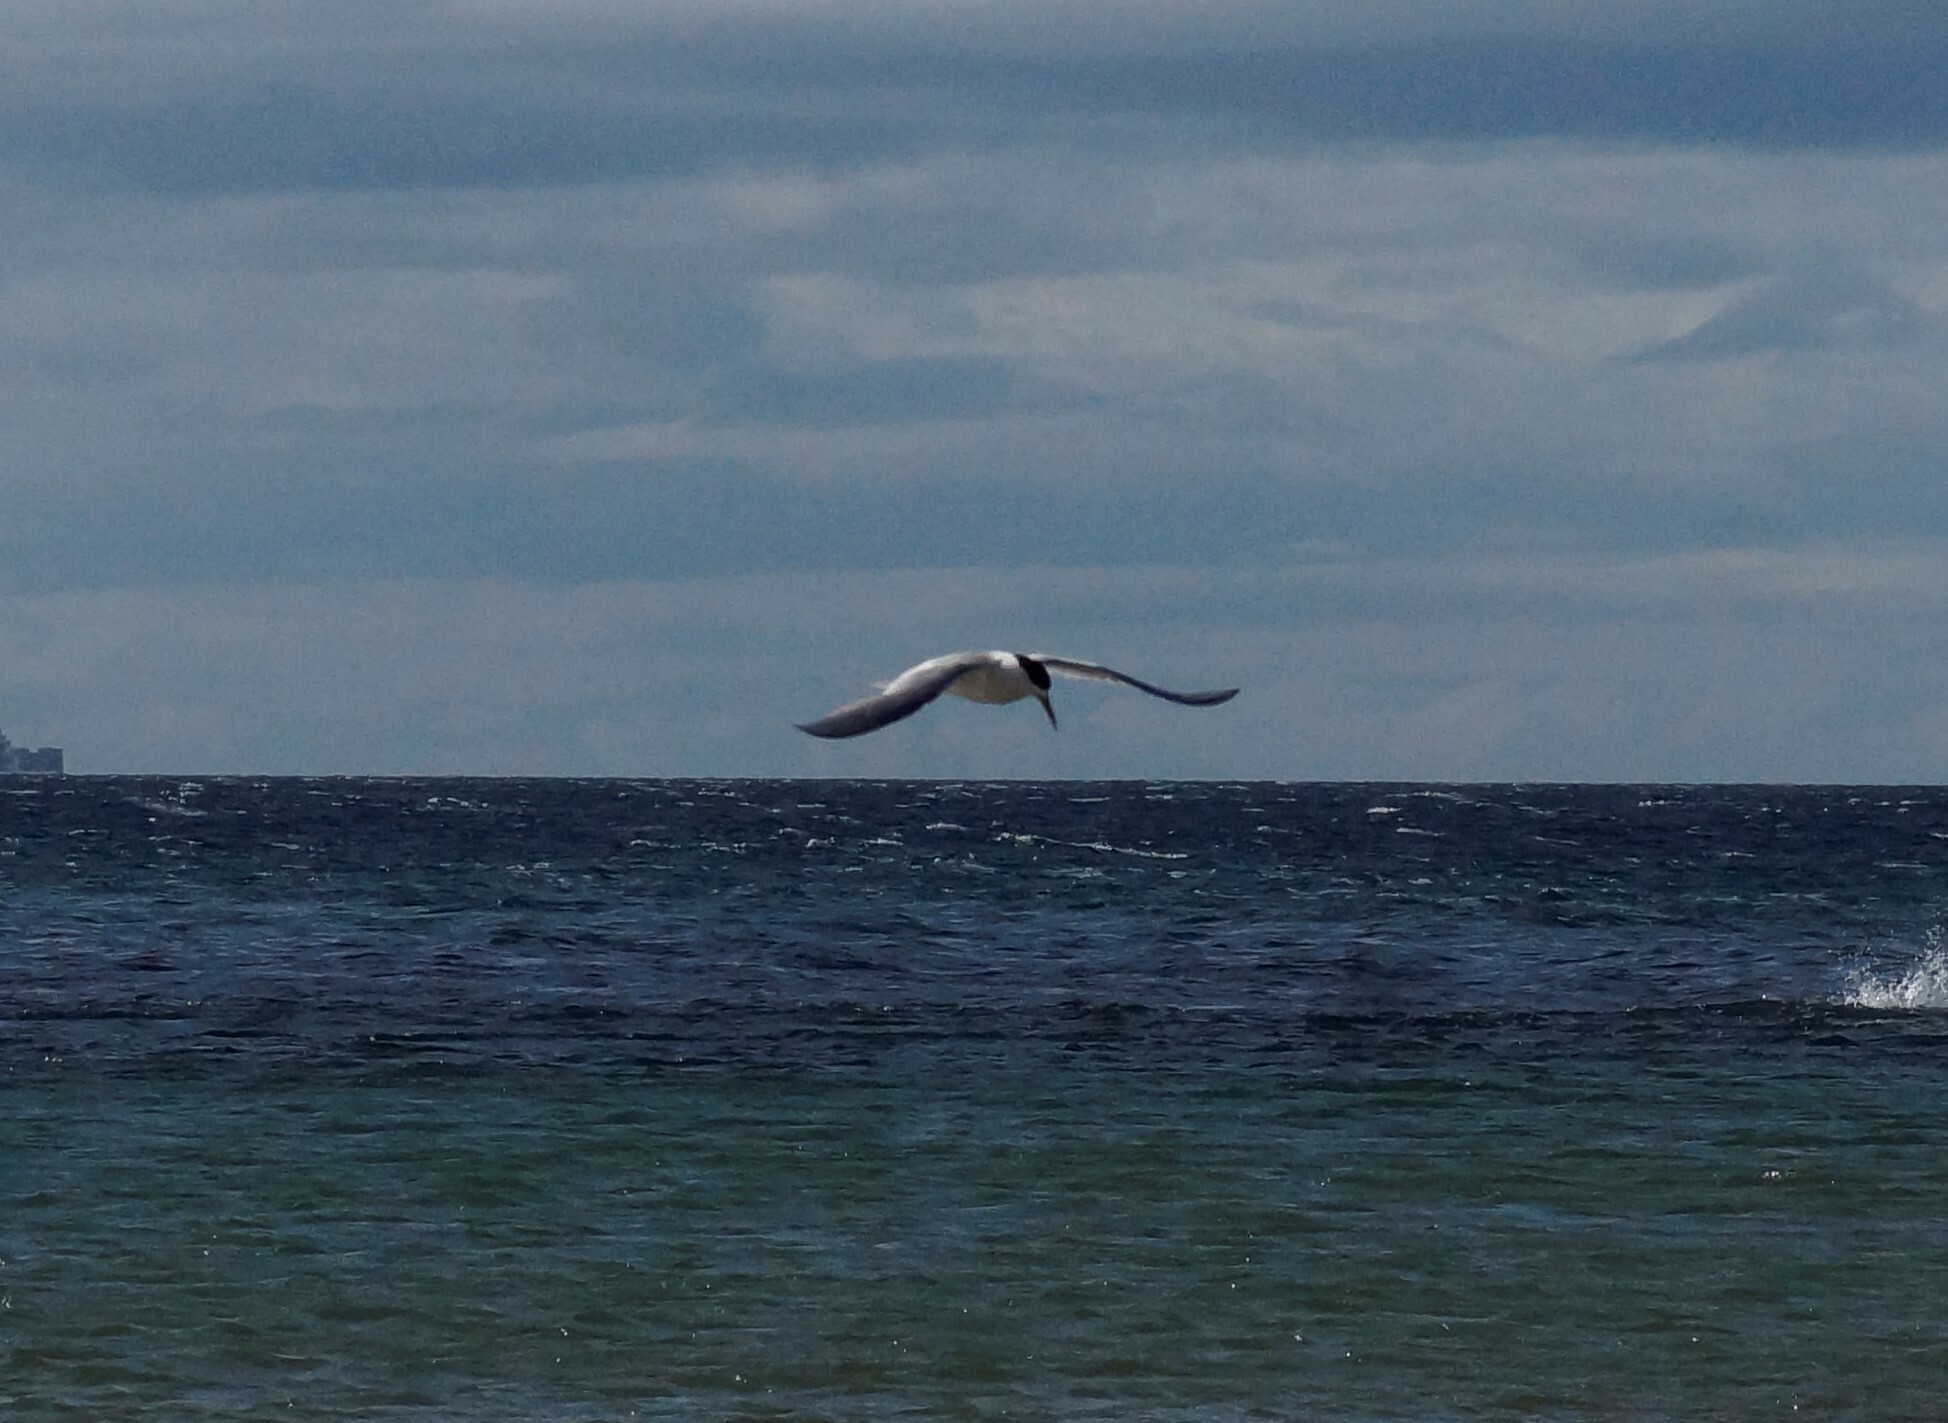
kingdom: Animalia
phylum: Chordata
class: Aves
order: Charadriiformes
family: Laridae
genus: Thalasseus
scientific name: Thalasseus bergii
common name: Greater crested tern
